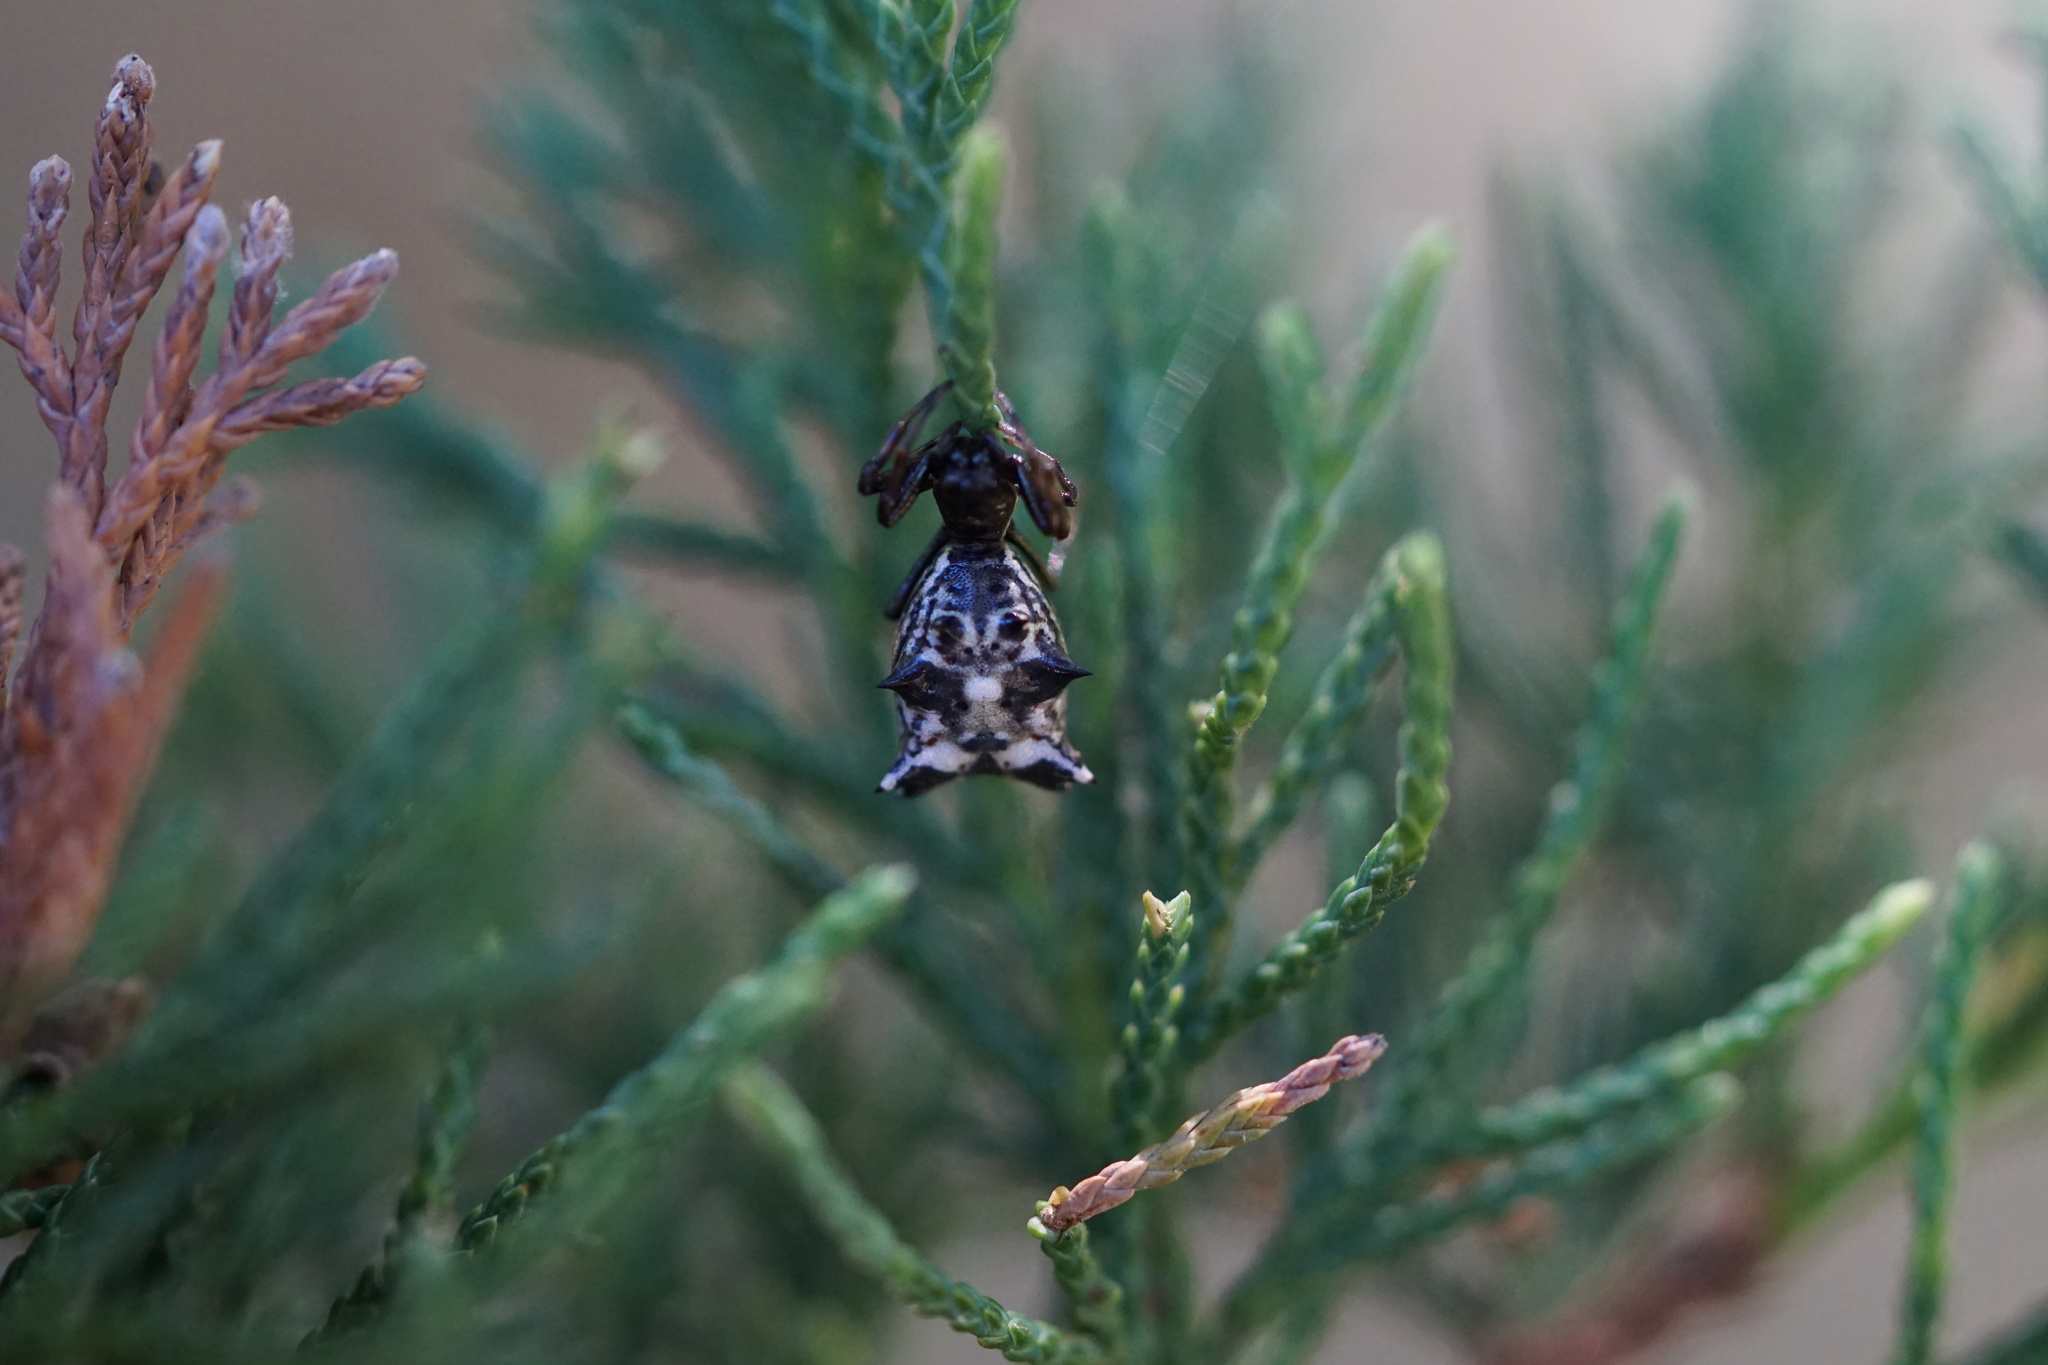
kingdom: Animalia
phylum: Arthropoda
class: Arachnida
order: Araneae
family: Araneidae
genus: Micrathena
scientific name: Micrathena gracilis
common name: Orb weavers
